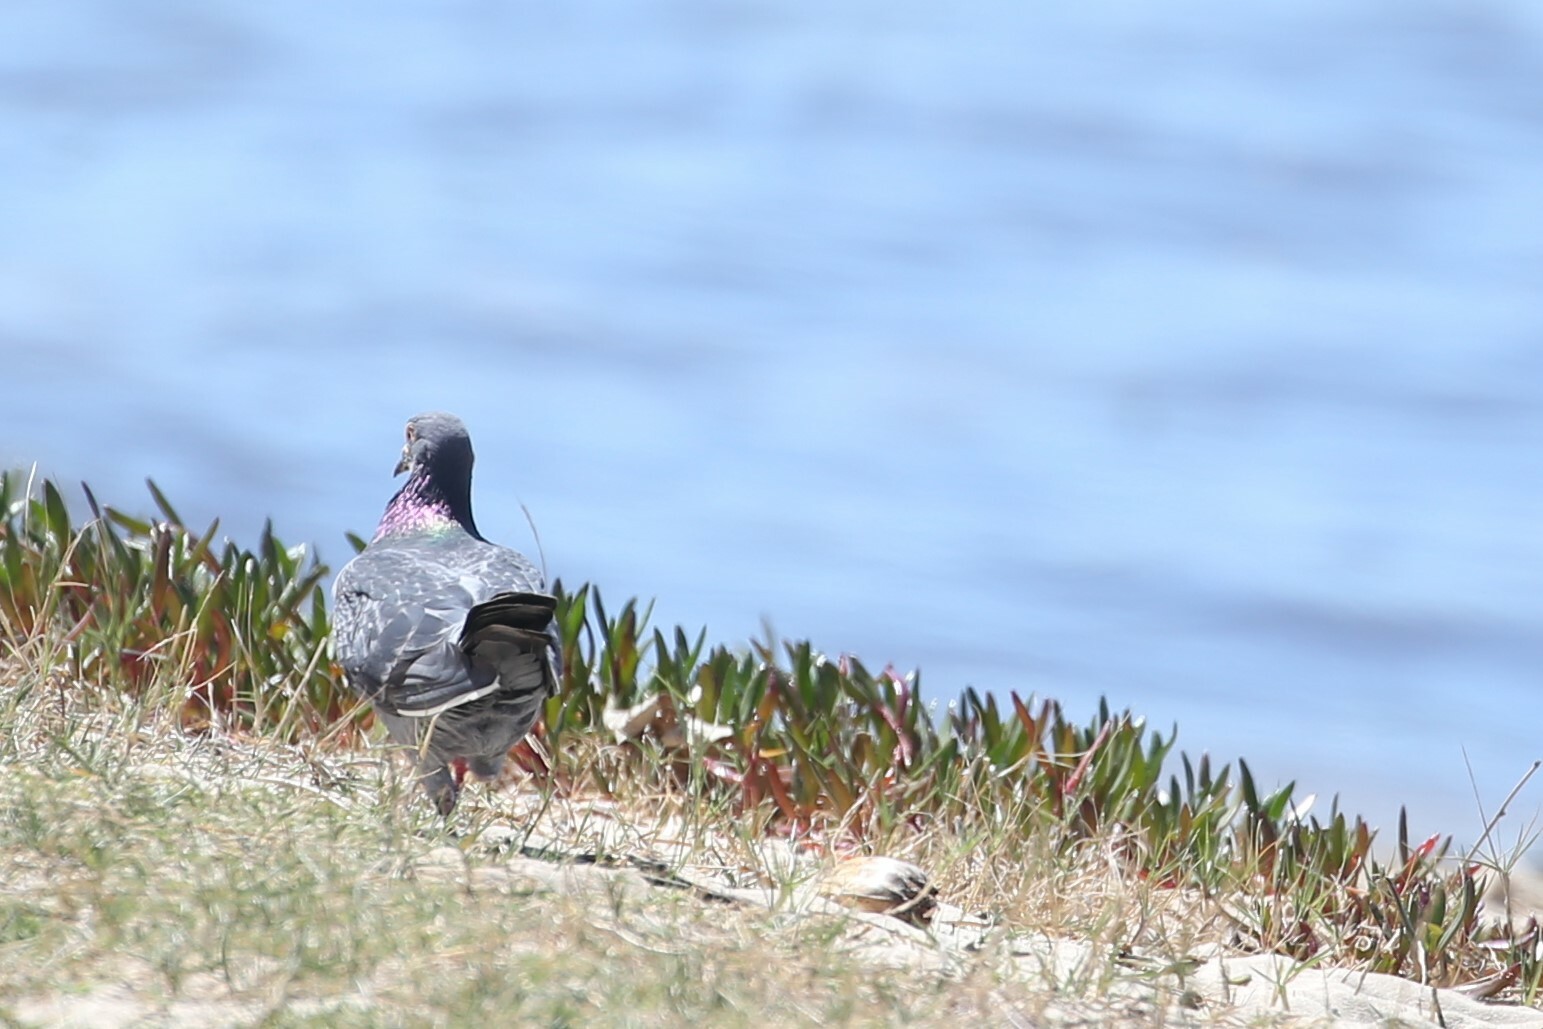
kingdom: Animalia
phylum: Chordata
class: Aves
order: Columbiformes
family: Columbidae
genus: Columba
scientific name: Columba livia
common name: Rock pigeon
